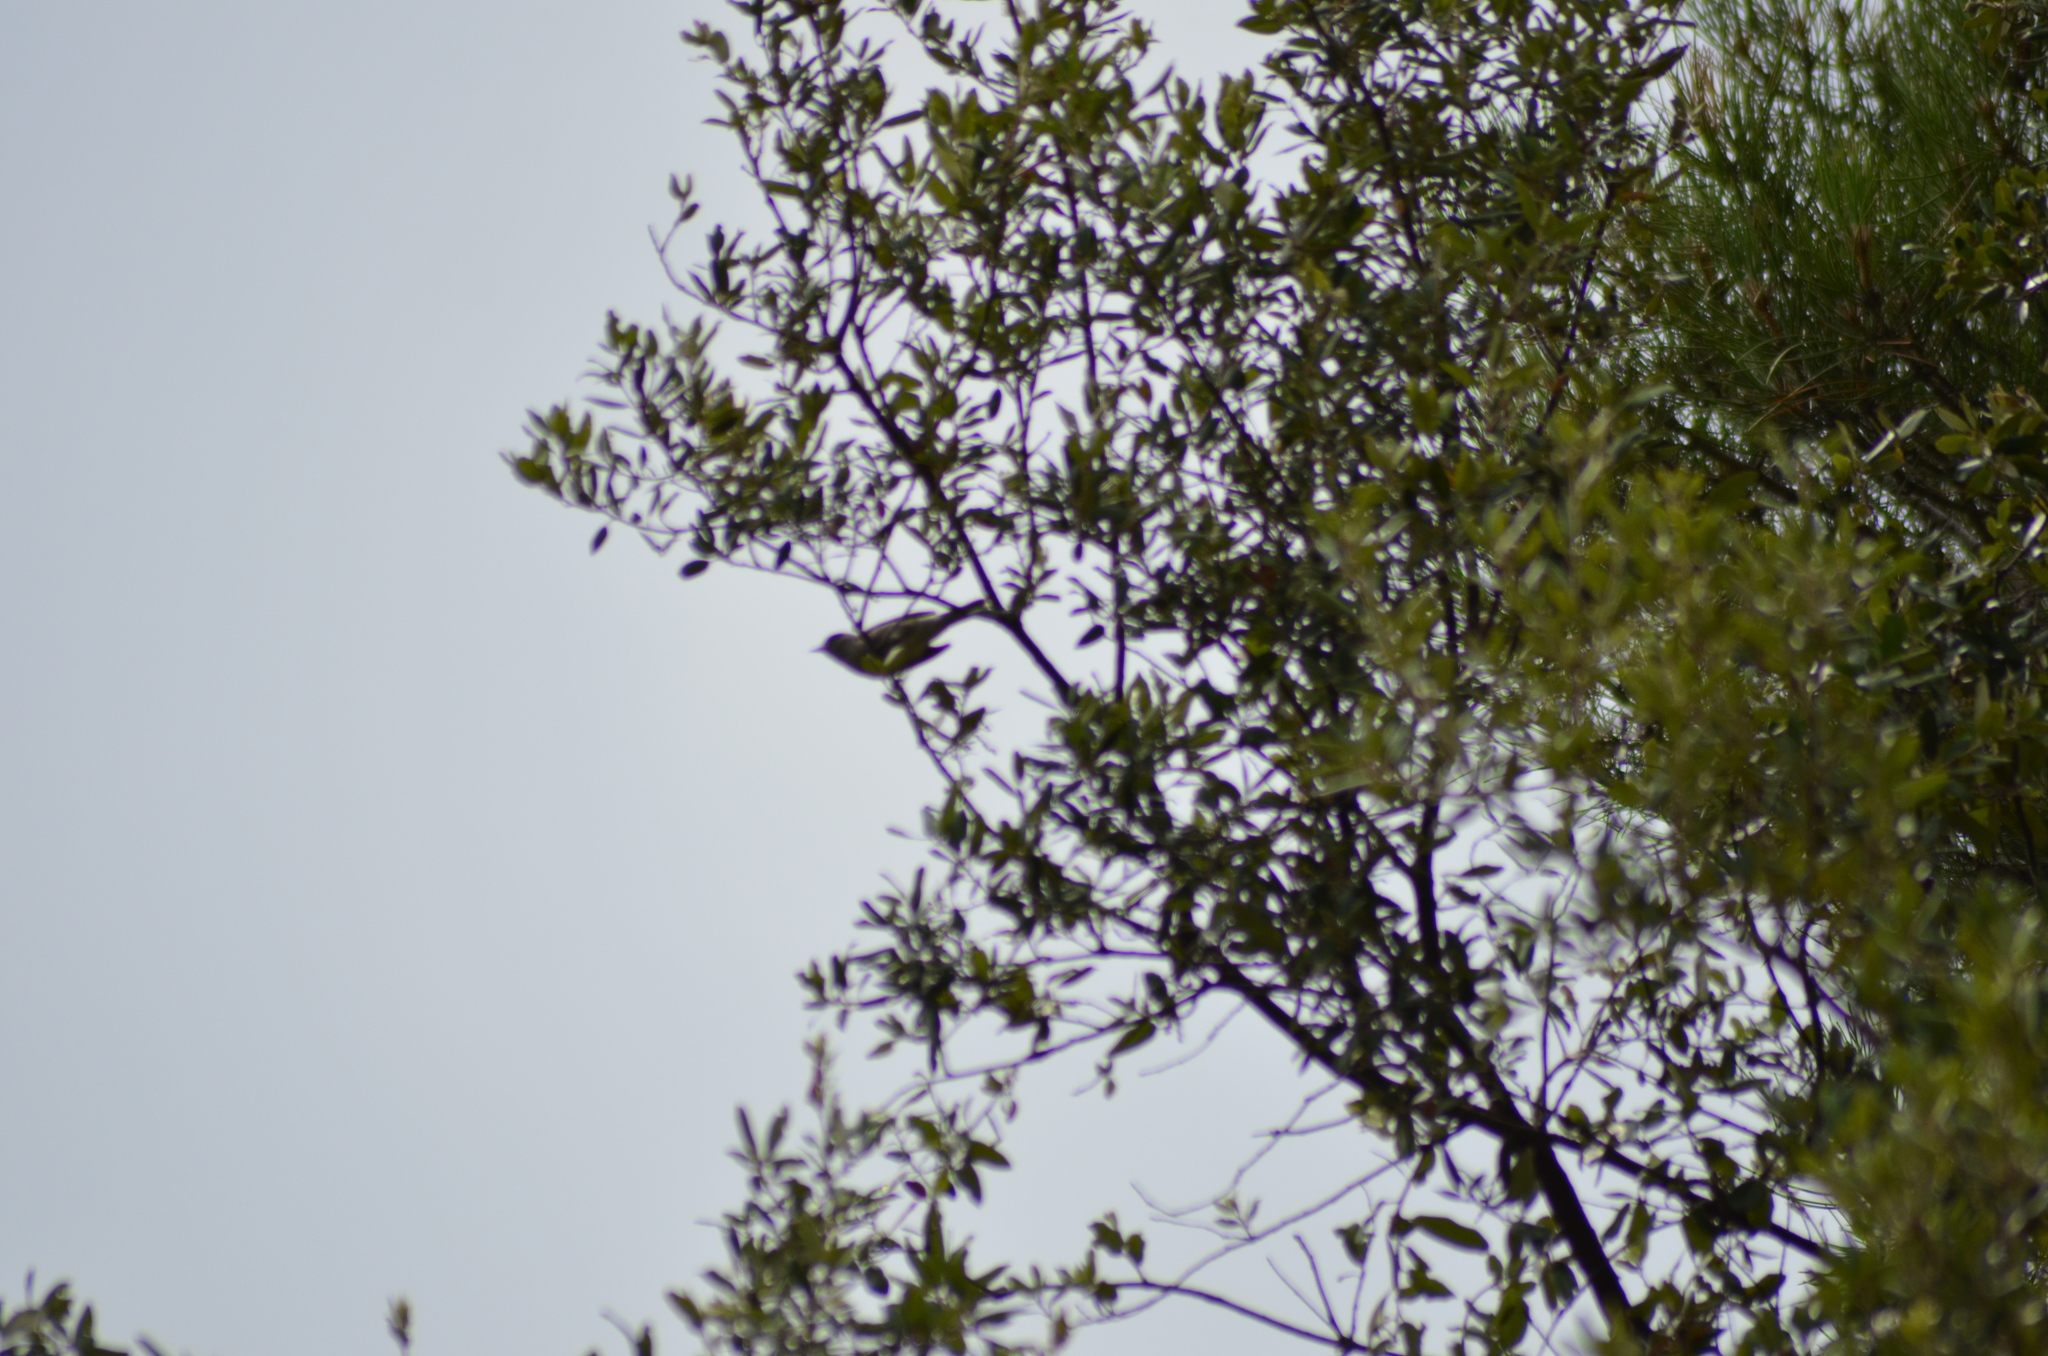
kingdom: Animalia
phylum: Chordata
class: Aves
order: Passeriformes
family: Sylviidae
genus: Sylvia
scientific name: Sylvia atricapilla
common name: Eurasian blackcap
